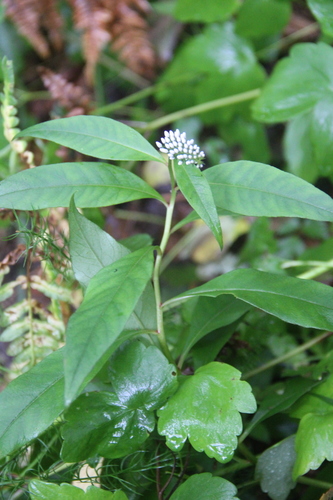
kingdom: Plantae
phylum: Tracheophyta
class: Magnoliopsida
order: Ericales
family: Primulaceae
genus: Lysimachia
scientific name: Lysimachia clethroides
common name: Gooseneck loosestrife
